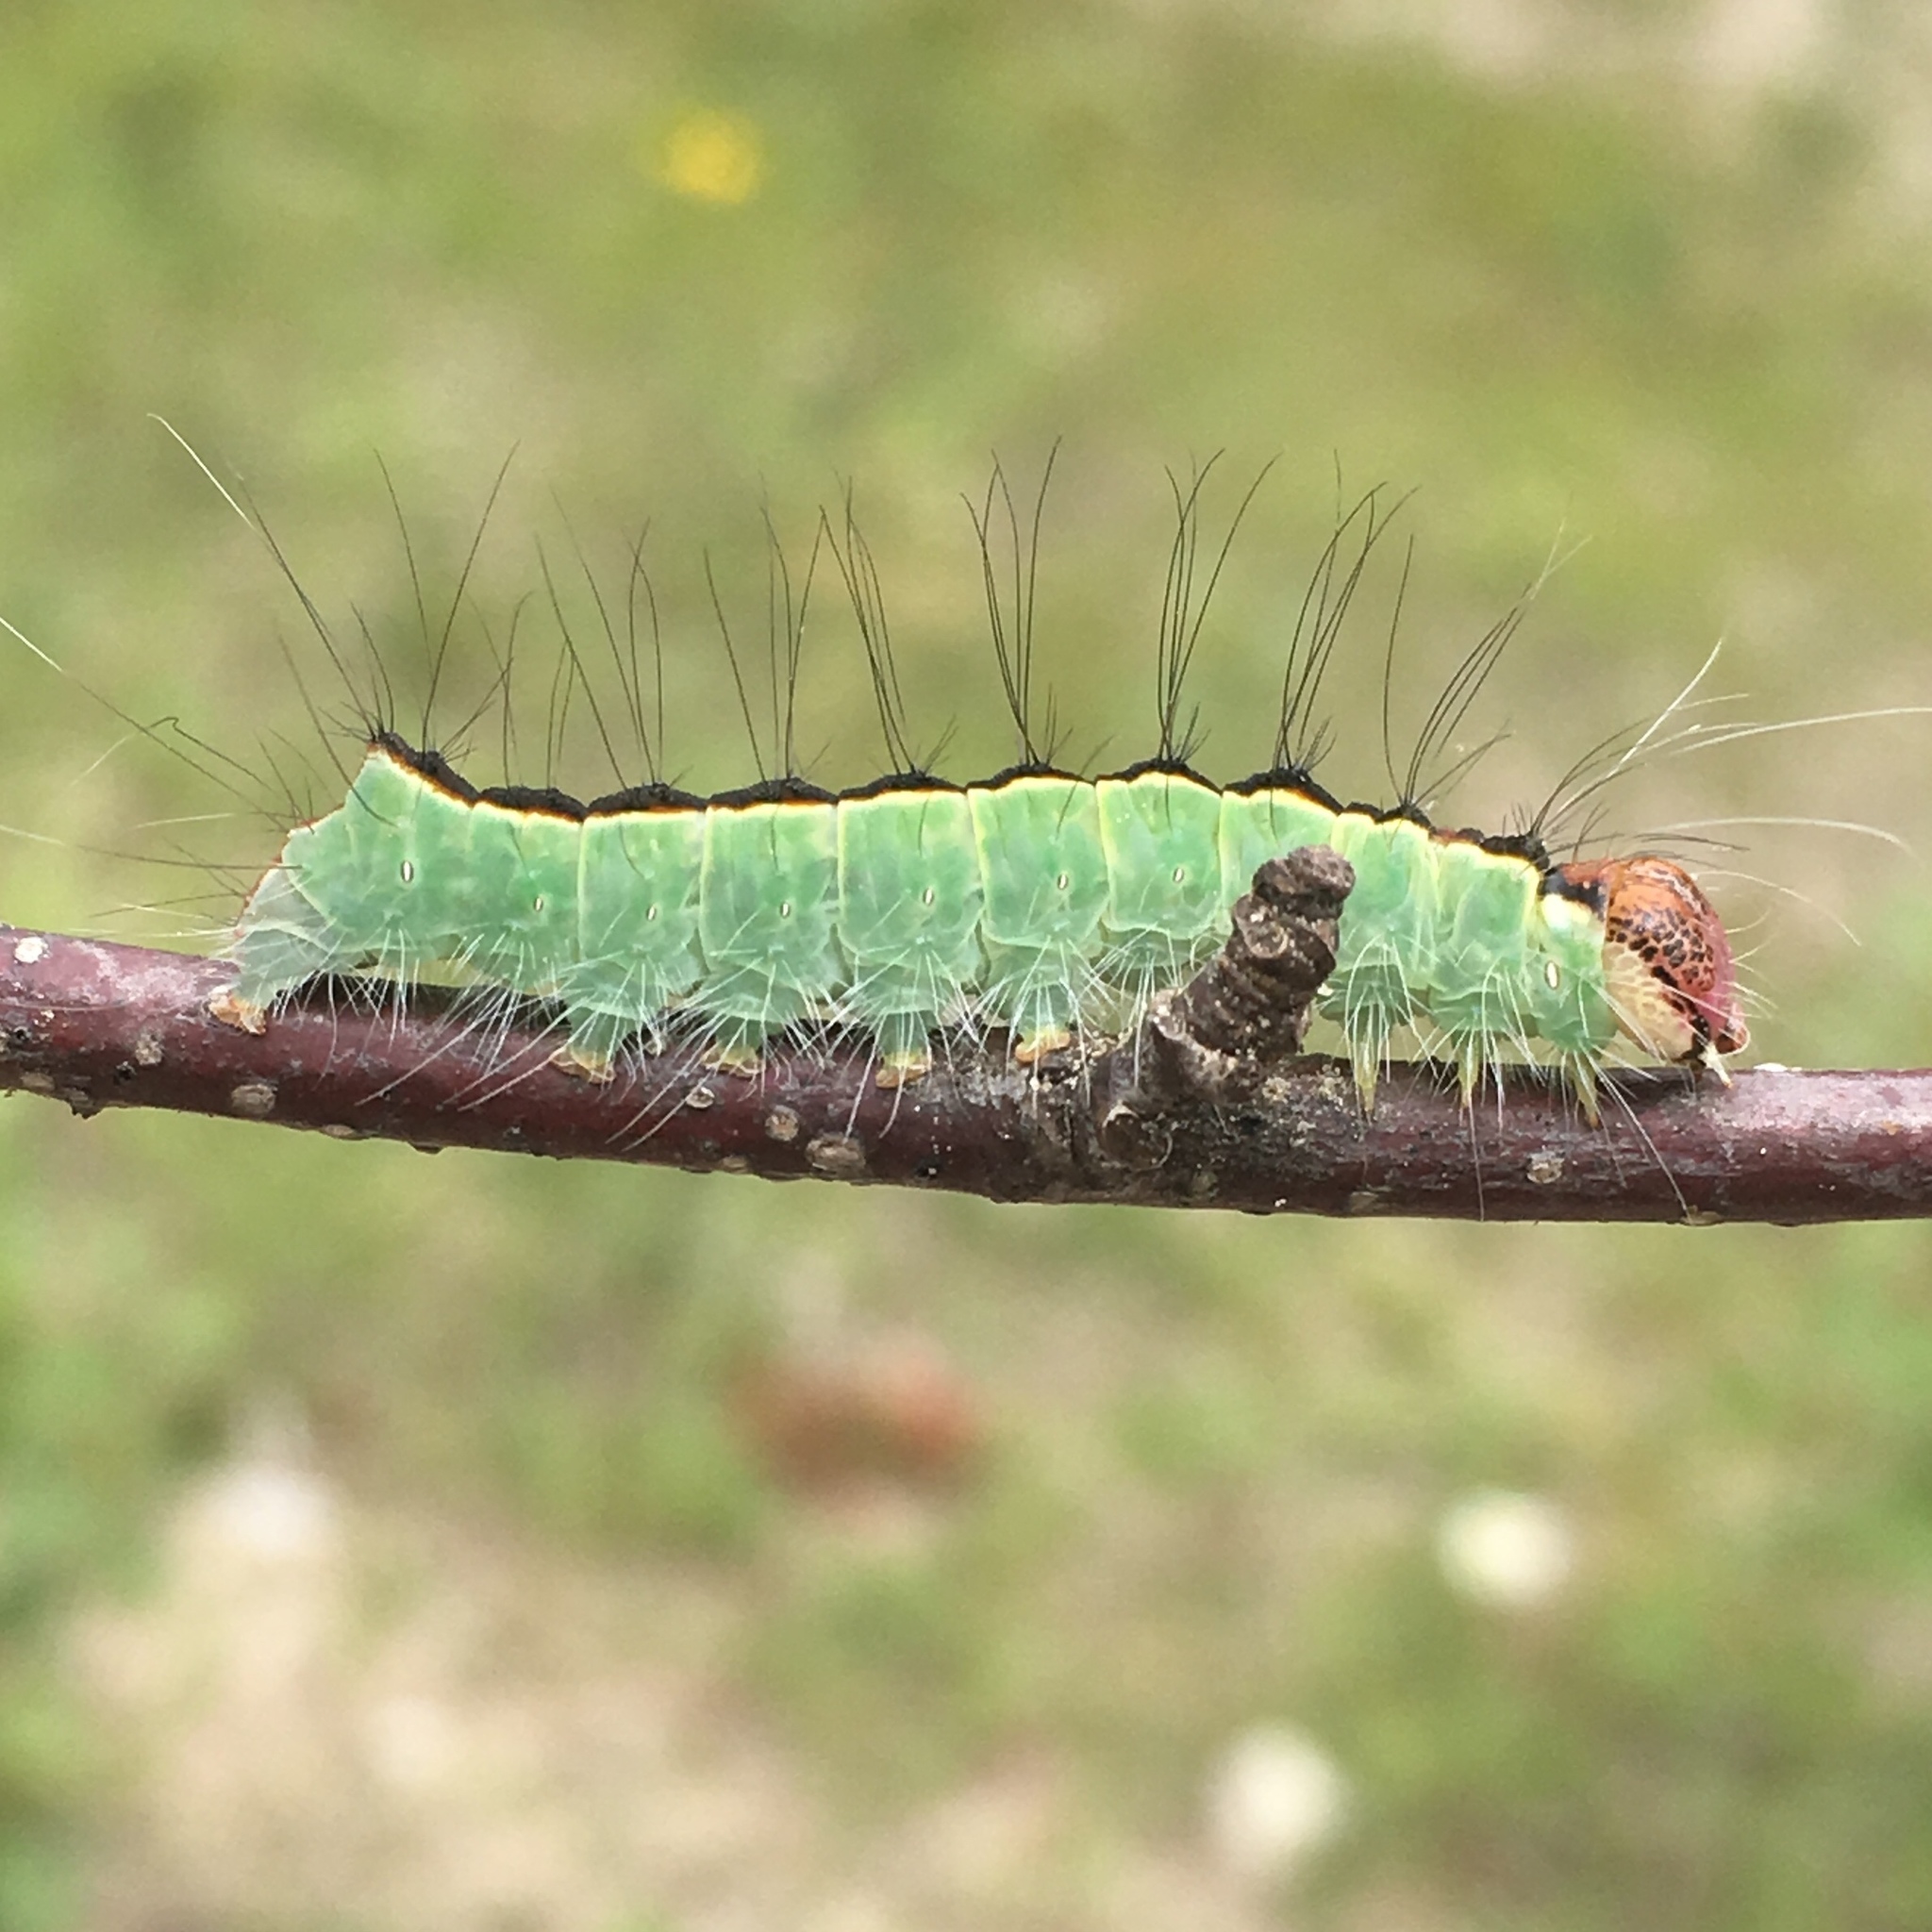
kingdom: Animalia
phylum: Arthropoda
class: Insecta
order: Lepidoptera
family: Noctuidae
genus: Acronicta
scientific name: Acronicta superans
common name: Splendid dagger
